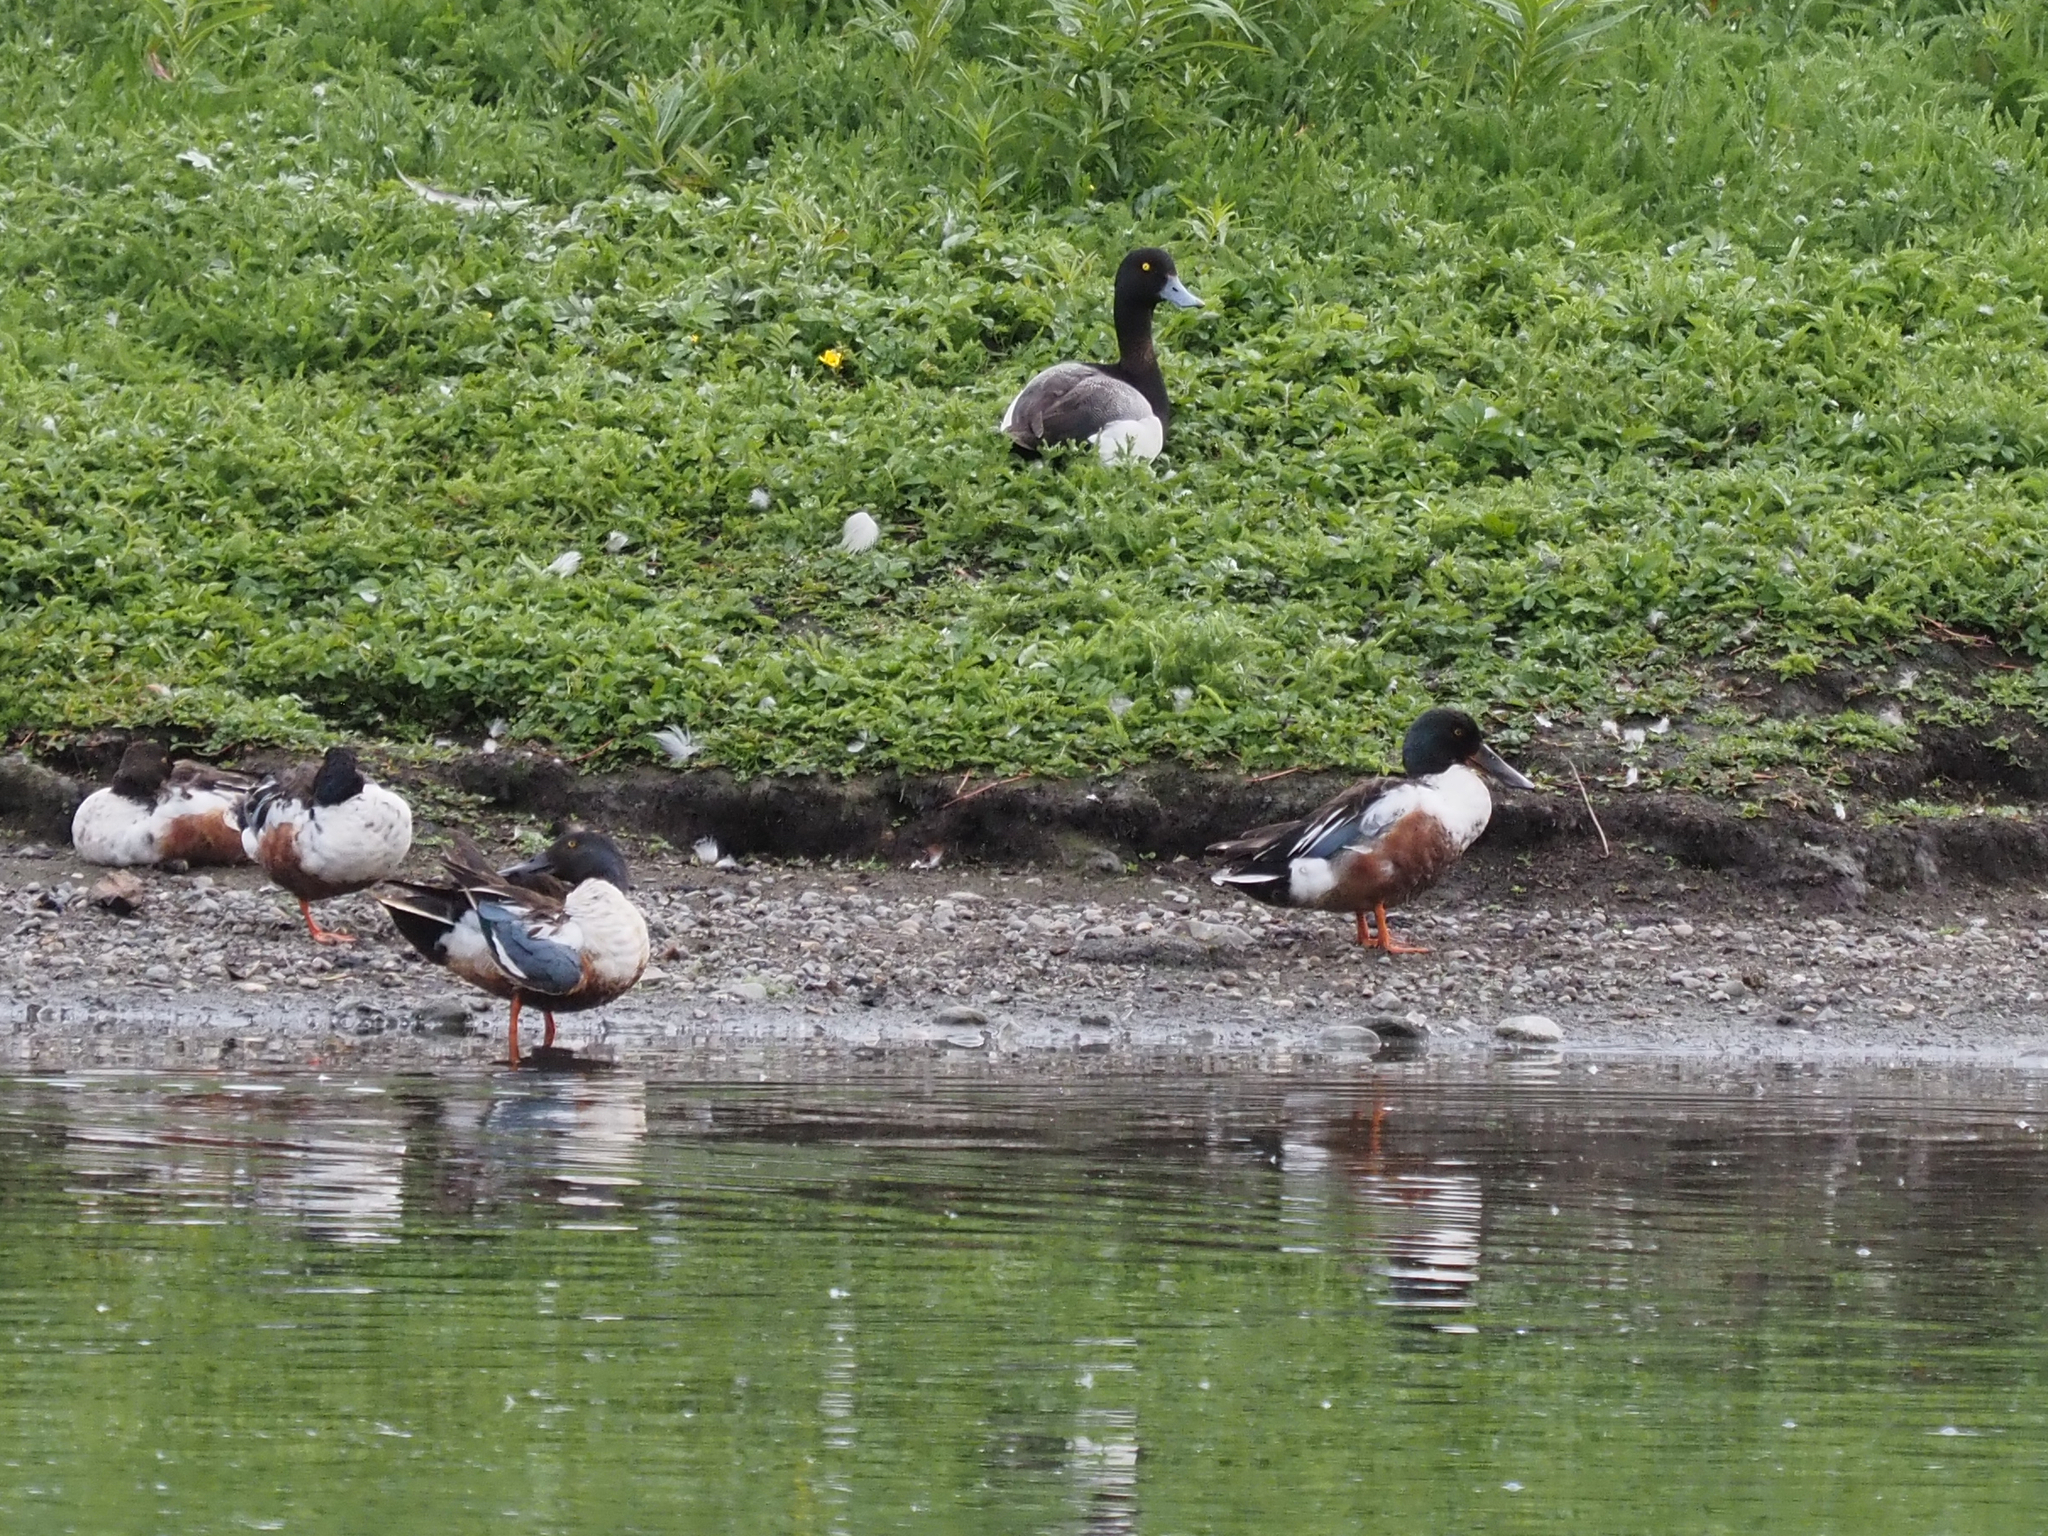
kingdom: Animalia
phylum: Chordata
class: Aves
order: Anseriformes
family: Anatidae
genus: Spatula
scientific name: Spatula clypeata
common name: Northern shoveler
